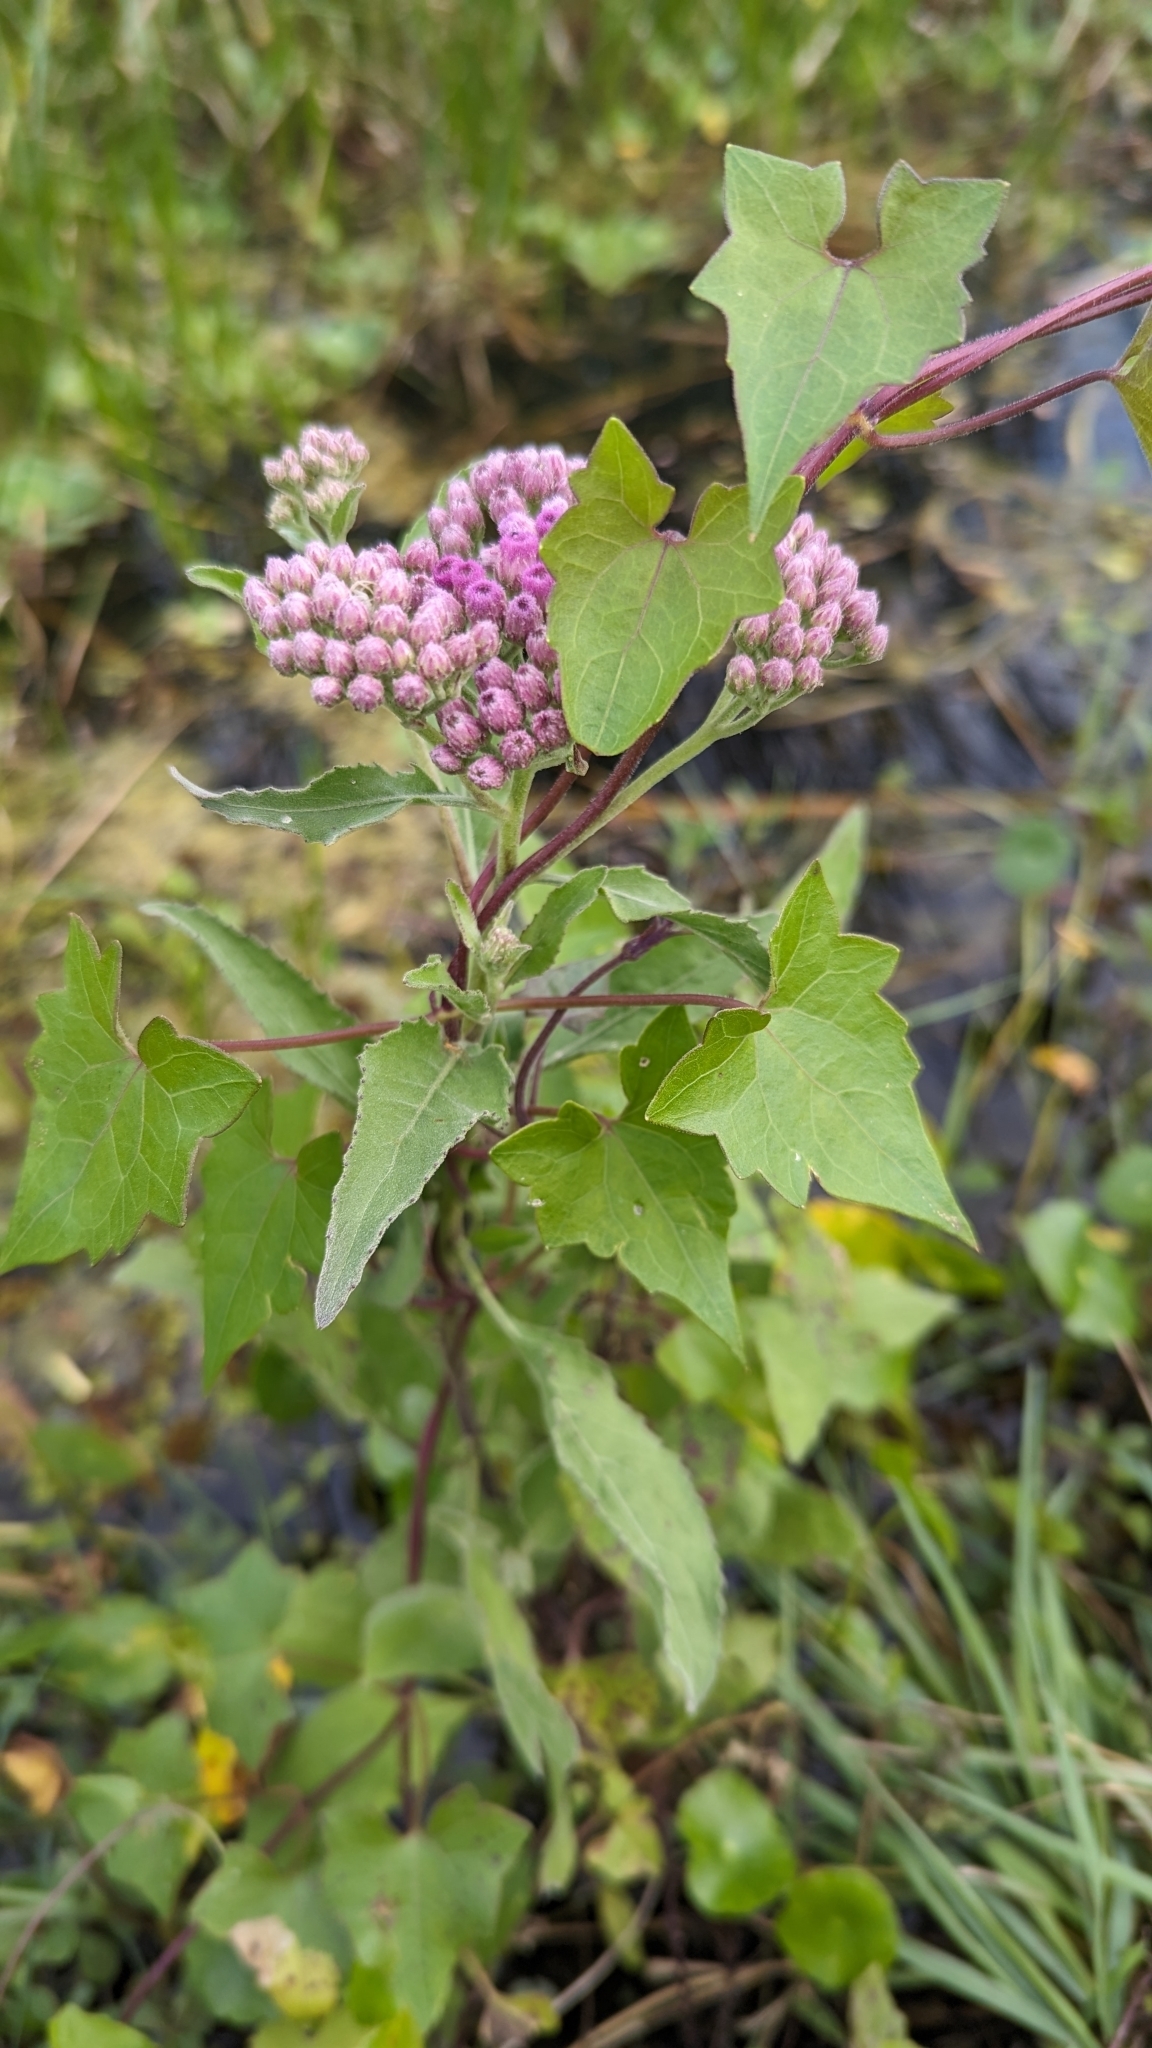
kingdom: Plantae
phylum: Tracheophyta
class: Magnoliopsida
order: Asterales
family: Asteraceae
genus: Pluchea
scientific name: Pluchea odorata
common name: Saltmarsh fleabane
